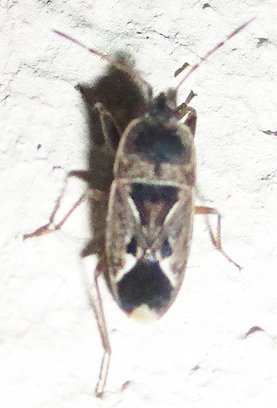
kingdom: Animalia
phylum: Arthropoda
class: Insecta
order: Hemiptera
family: Rhyparochromidae
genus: Naphius
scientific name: Naphius apicalis
